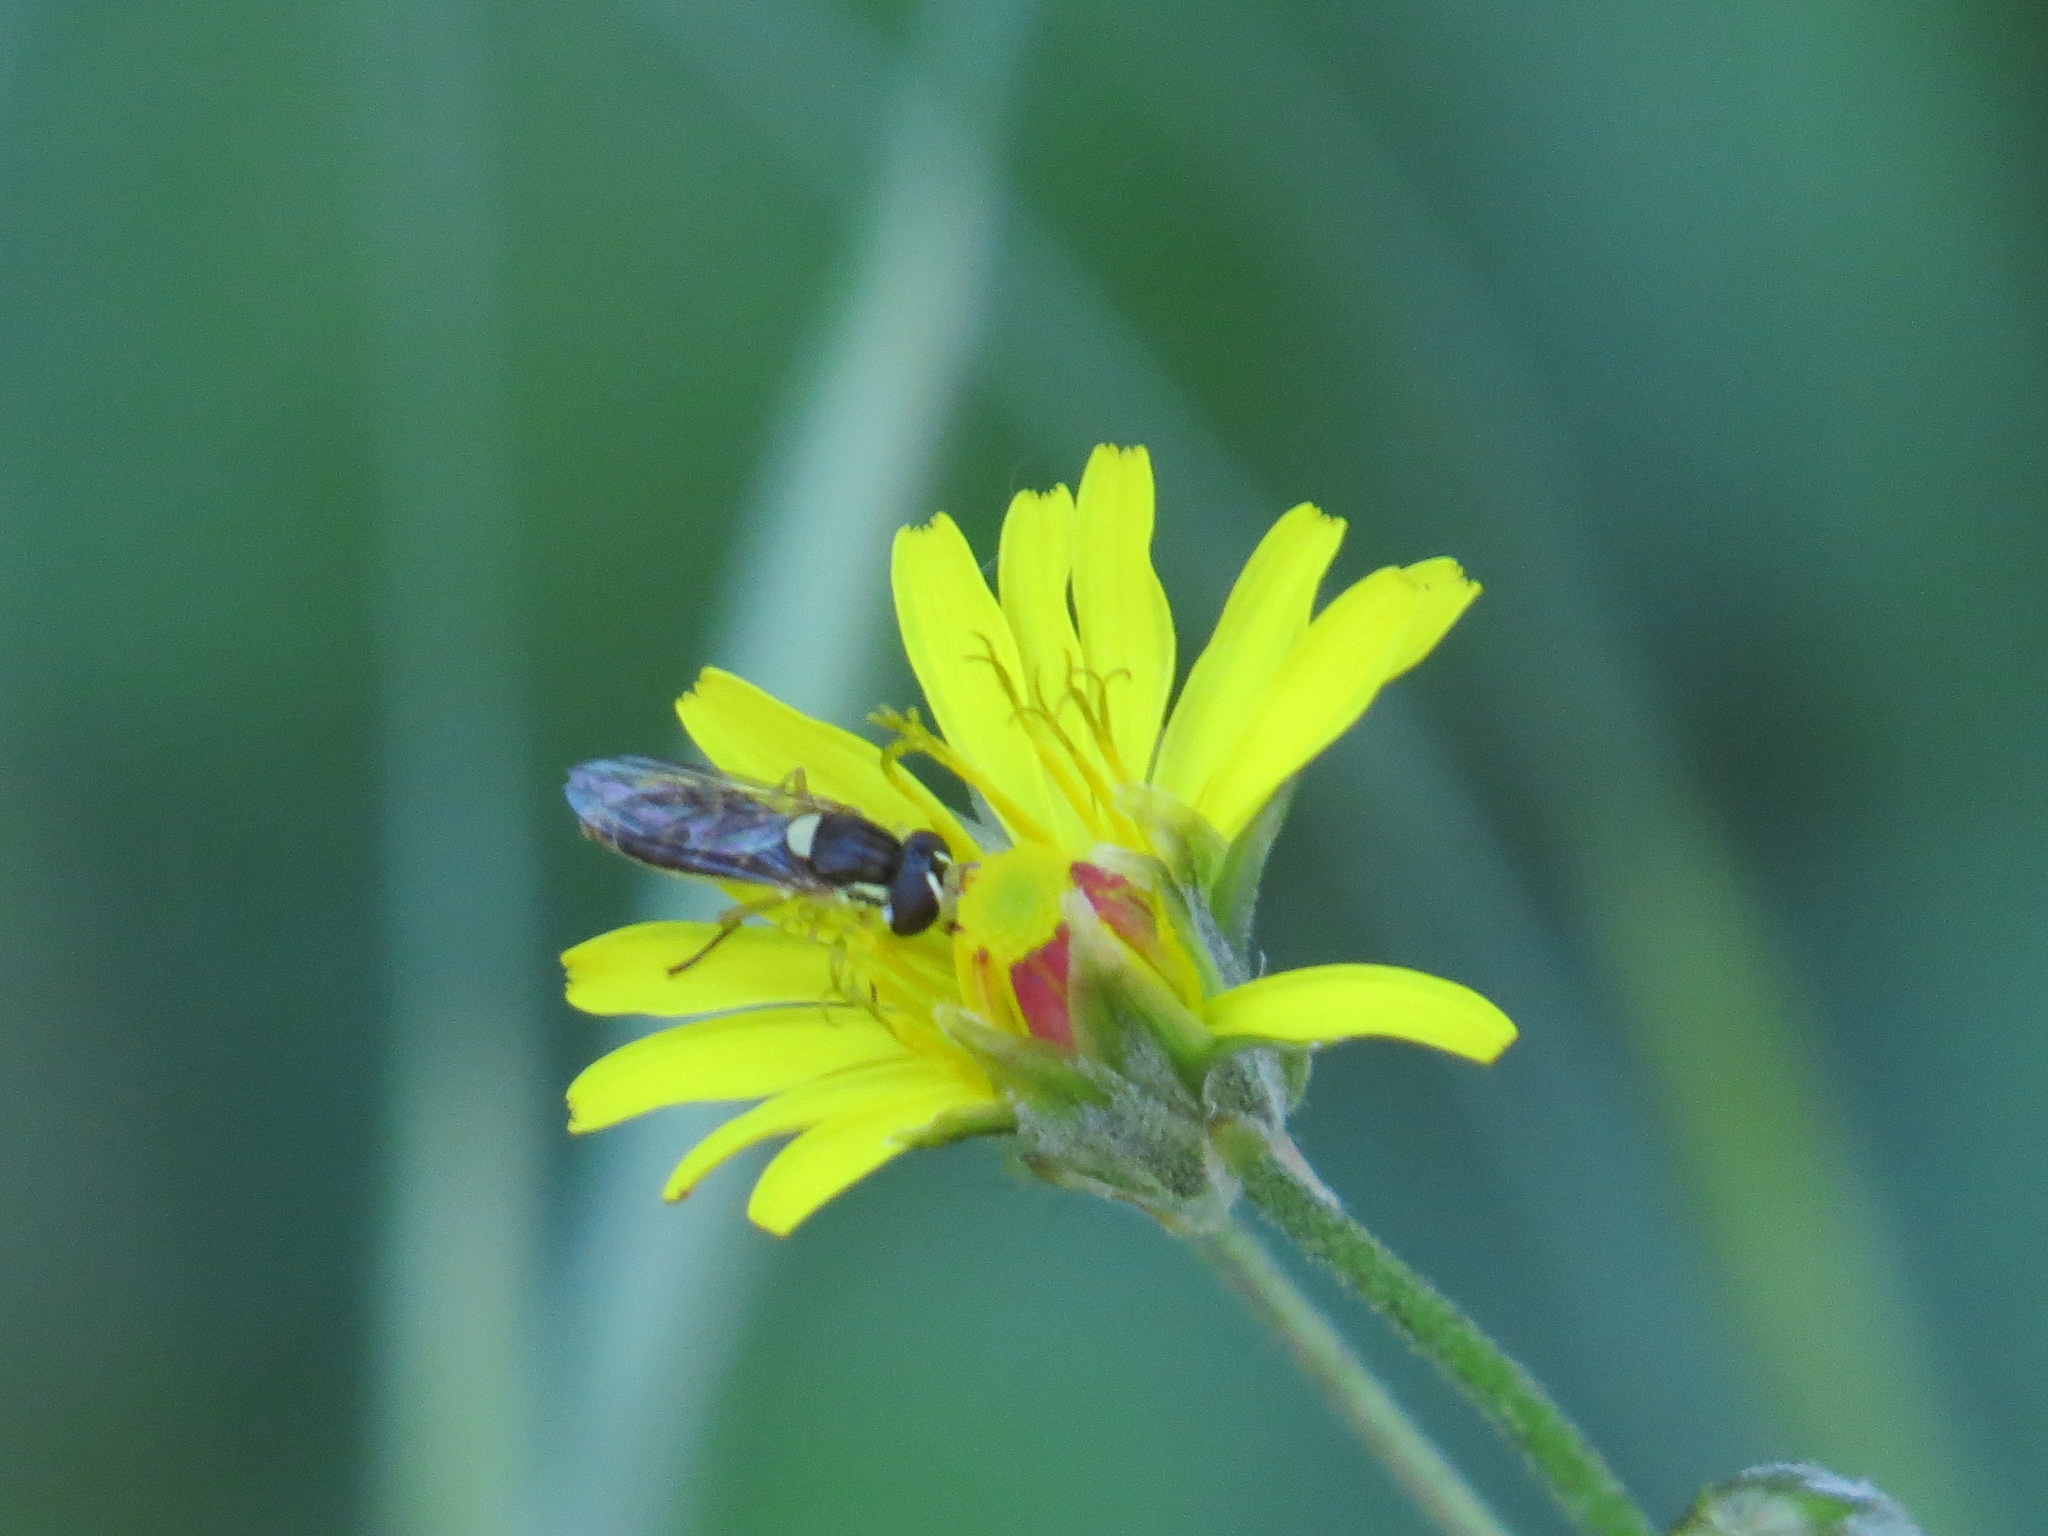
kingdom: Animalia
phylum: Arthropoda
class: Insecta
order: Diptera
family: Syrphidae
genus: Sphaerophoria
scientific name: Sphaerophoria sulphuripes
